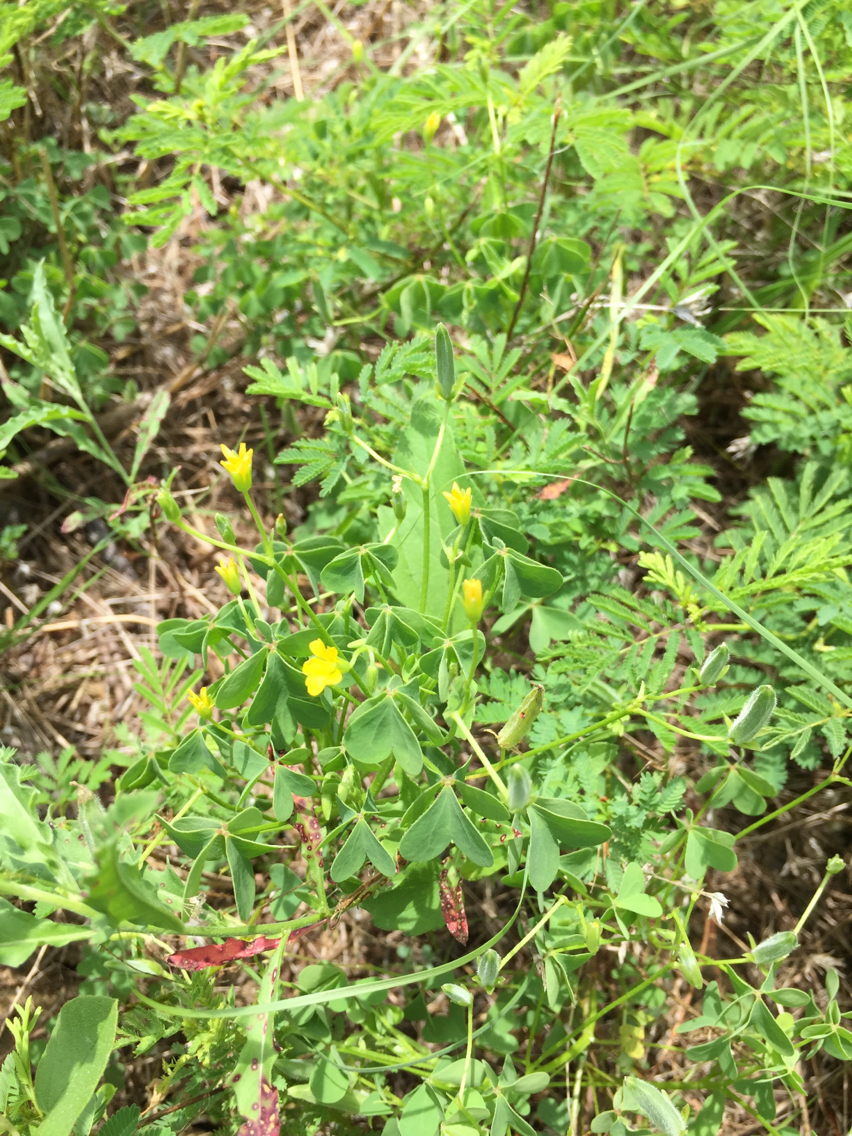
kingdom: Plantae
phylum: Tracheophyta
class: Magnoliopsida
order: Oxalidales
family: Oxalidaceae
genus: Oxalis
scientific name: Oxalis dillenii
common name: Sussex yellow-sorrel
